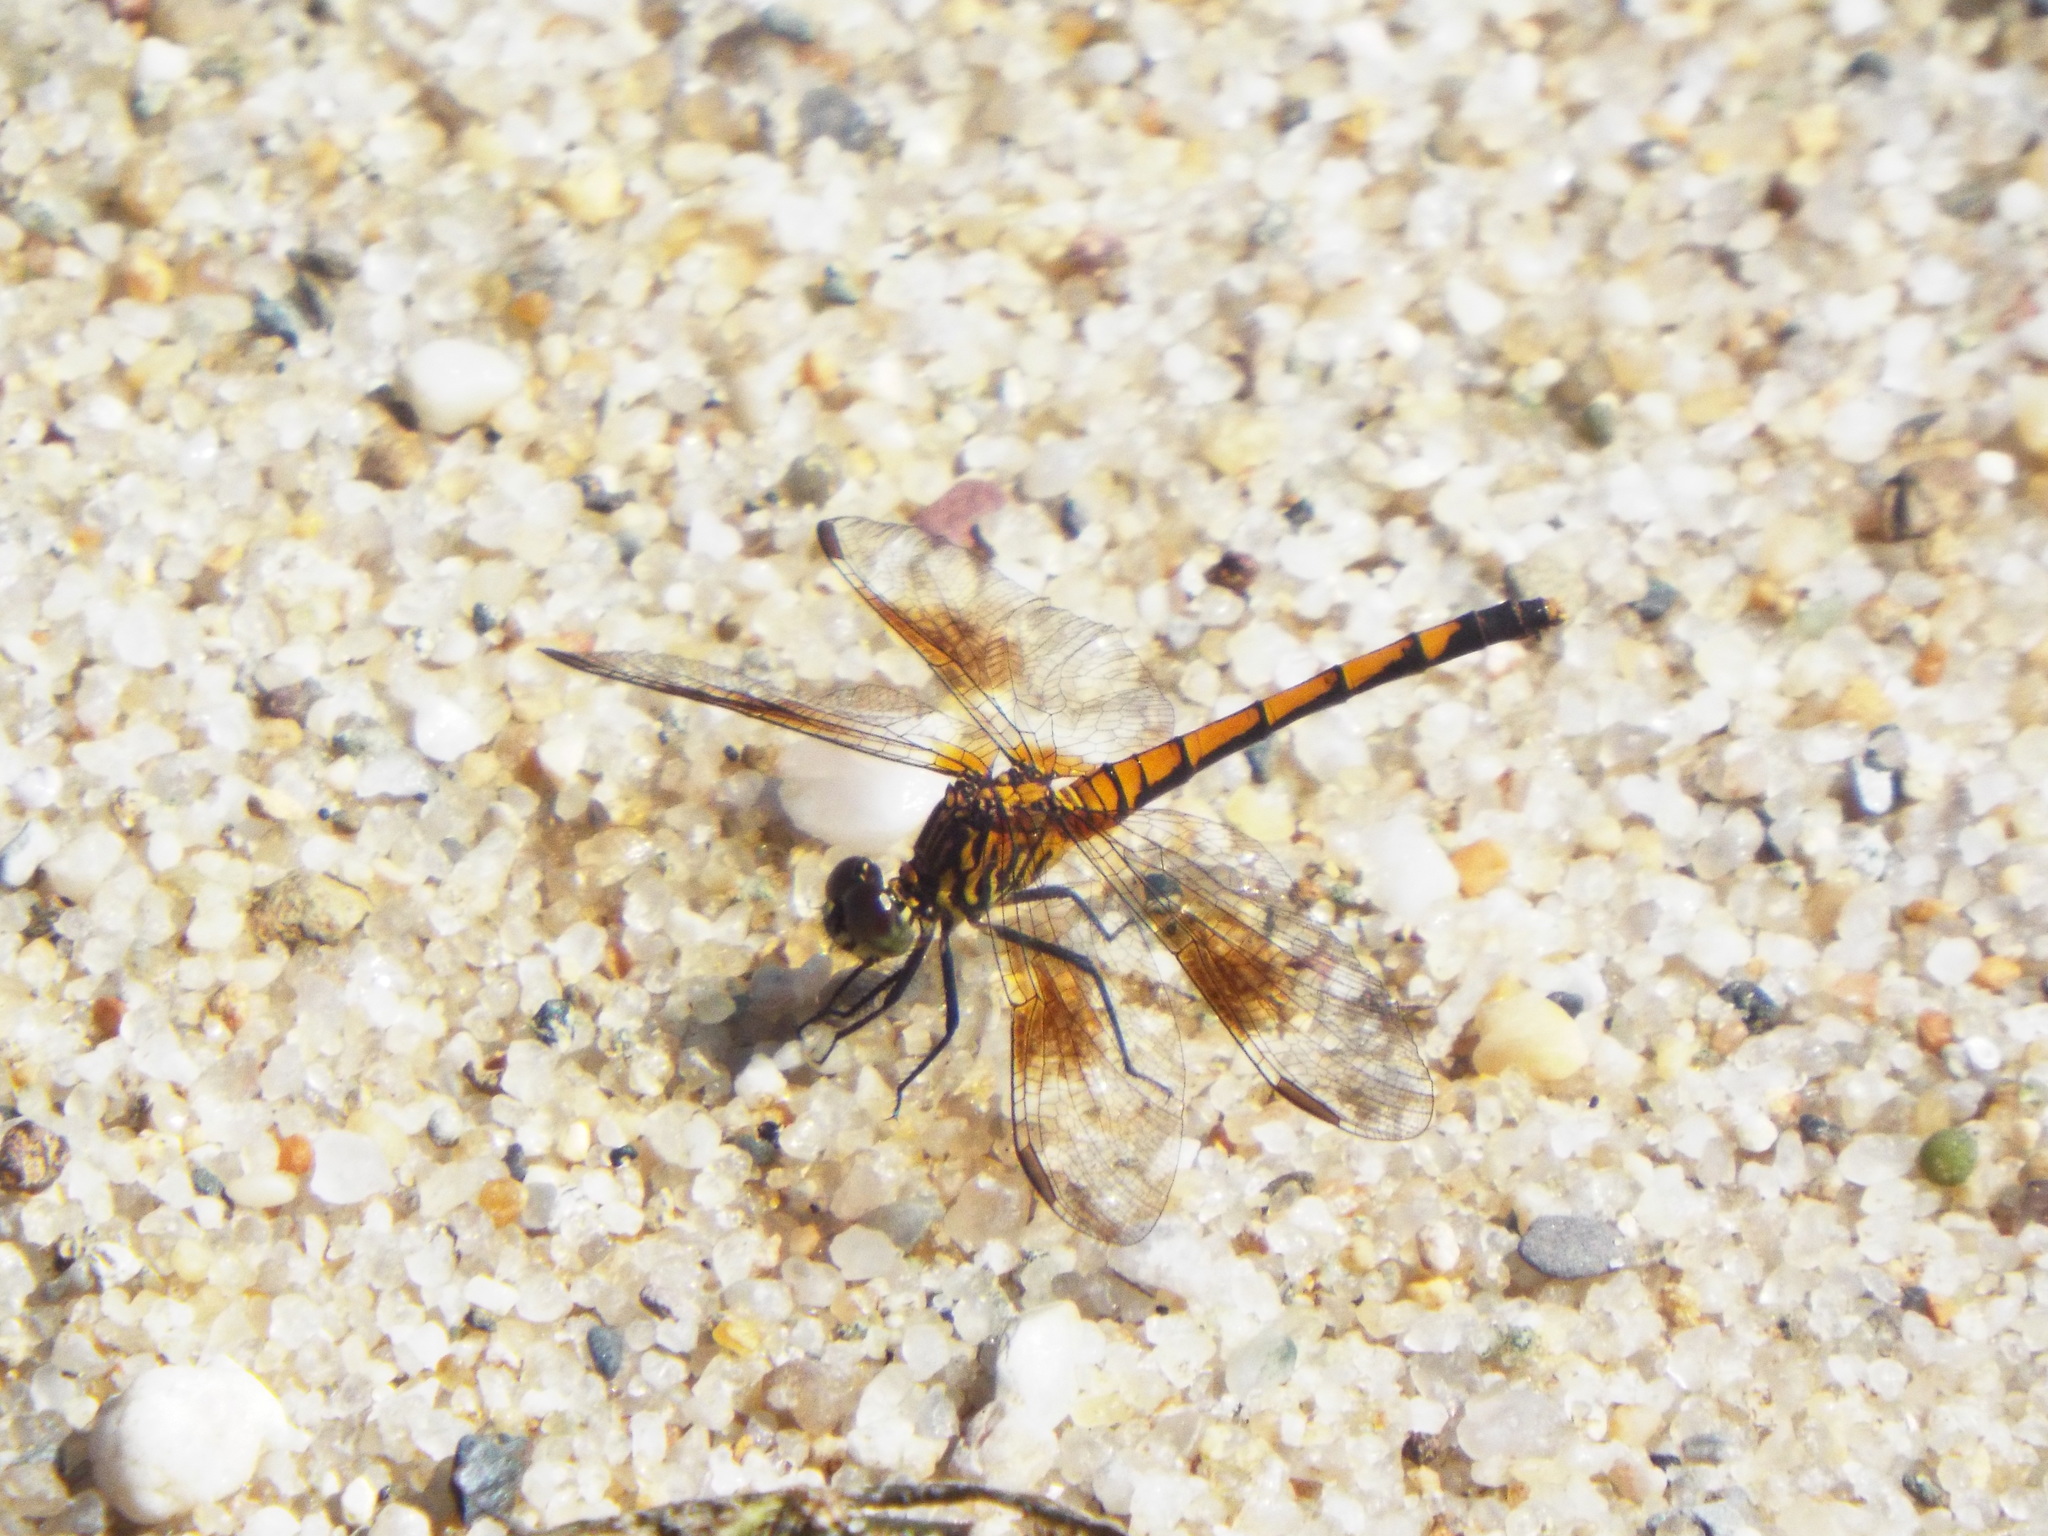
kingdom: Animalia
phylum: Arthropoda
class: Insecta
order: Odonata
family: Libellulidae
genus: Erythrodiplax
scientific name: Erythrodiplax berenice
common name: Seaside dragonlet
